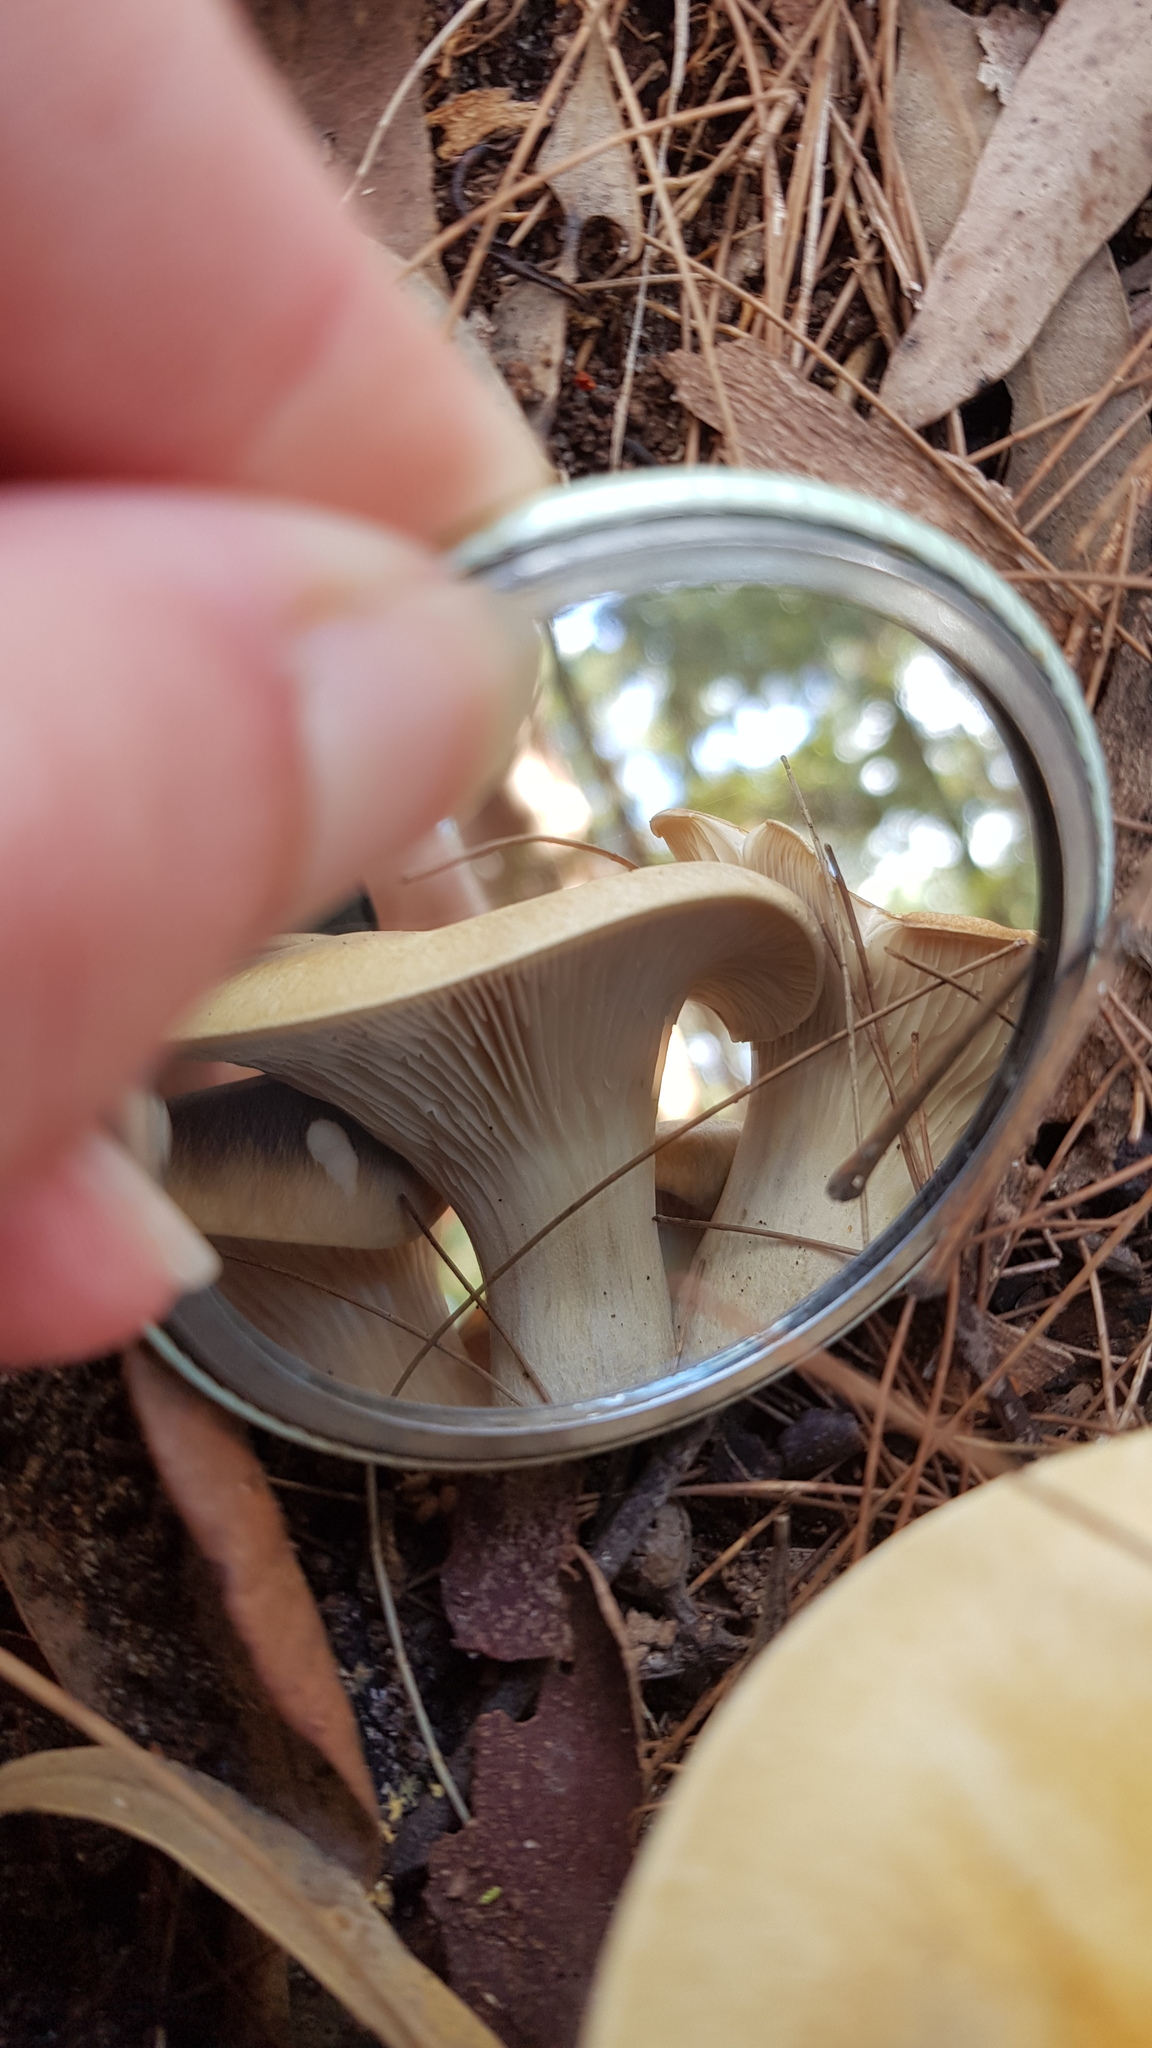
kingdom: Fungi
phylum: Basidiomycota
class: Agaricomycetes
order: Agaricales
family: Omphalotaceae
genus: Omphalotus
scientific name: Omphalotus nidiformis
